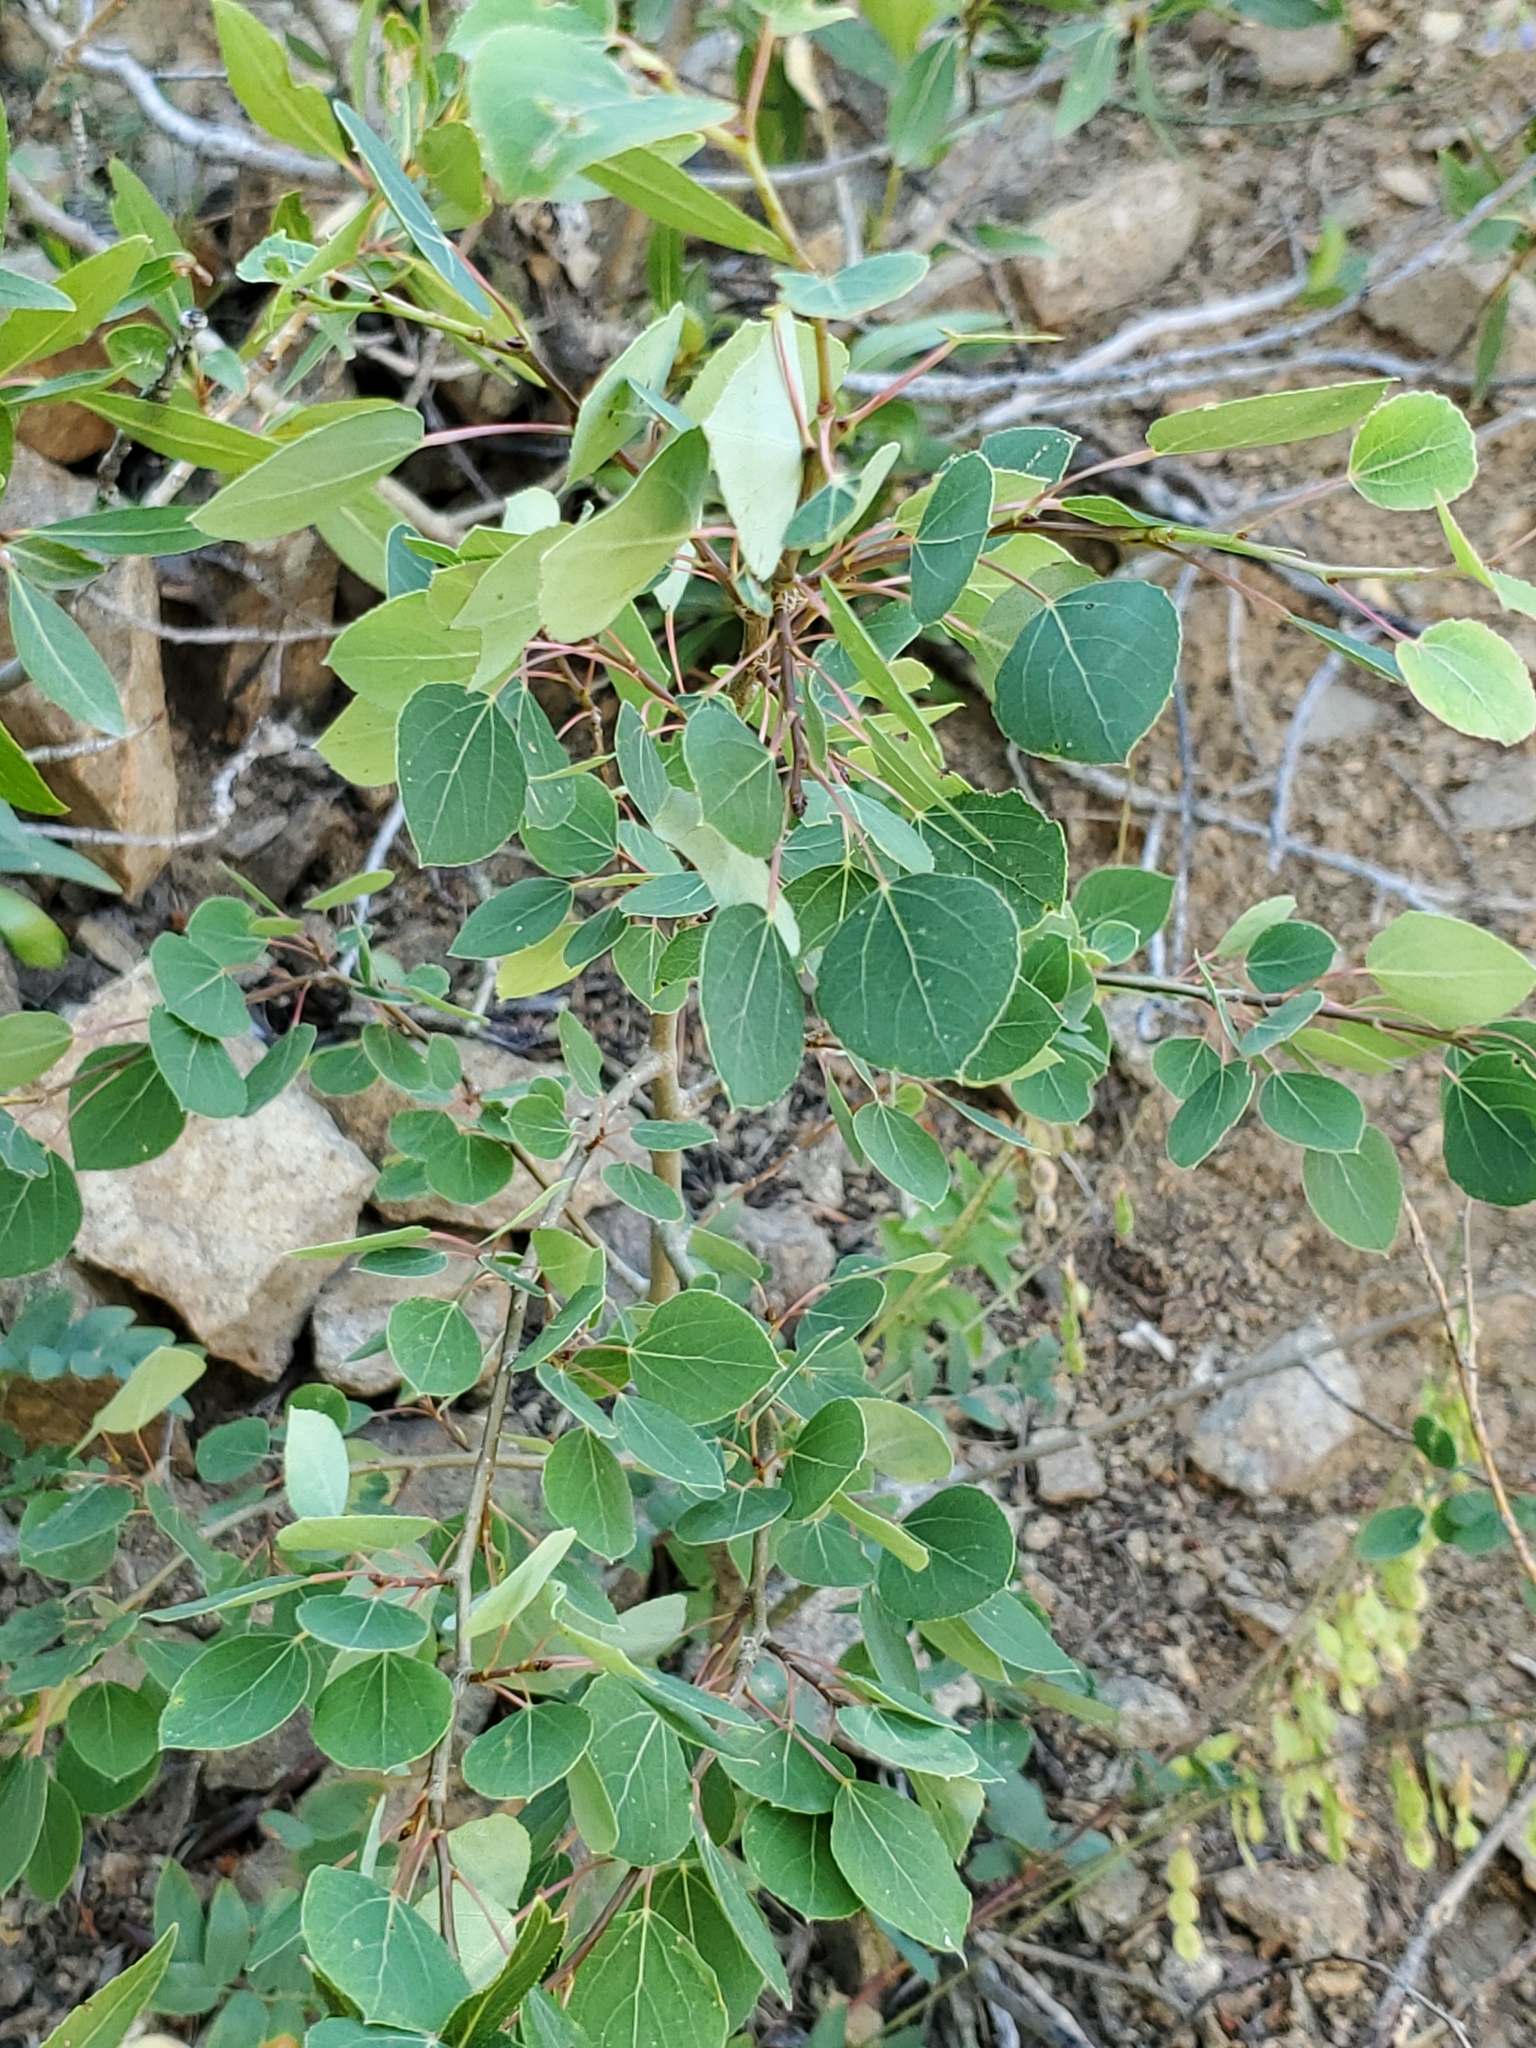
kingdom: Plantae
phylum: Tracheophyta
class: Magnoliopsida
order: Malpighiales
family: Salicaceae
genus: Populus
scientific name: Populus tremuloides
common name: Quaking aspen
